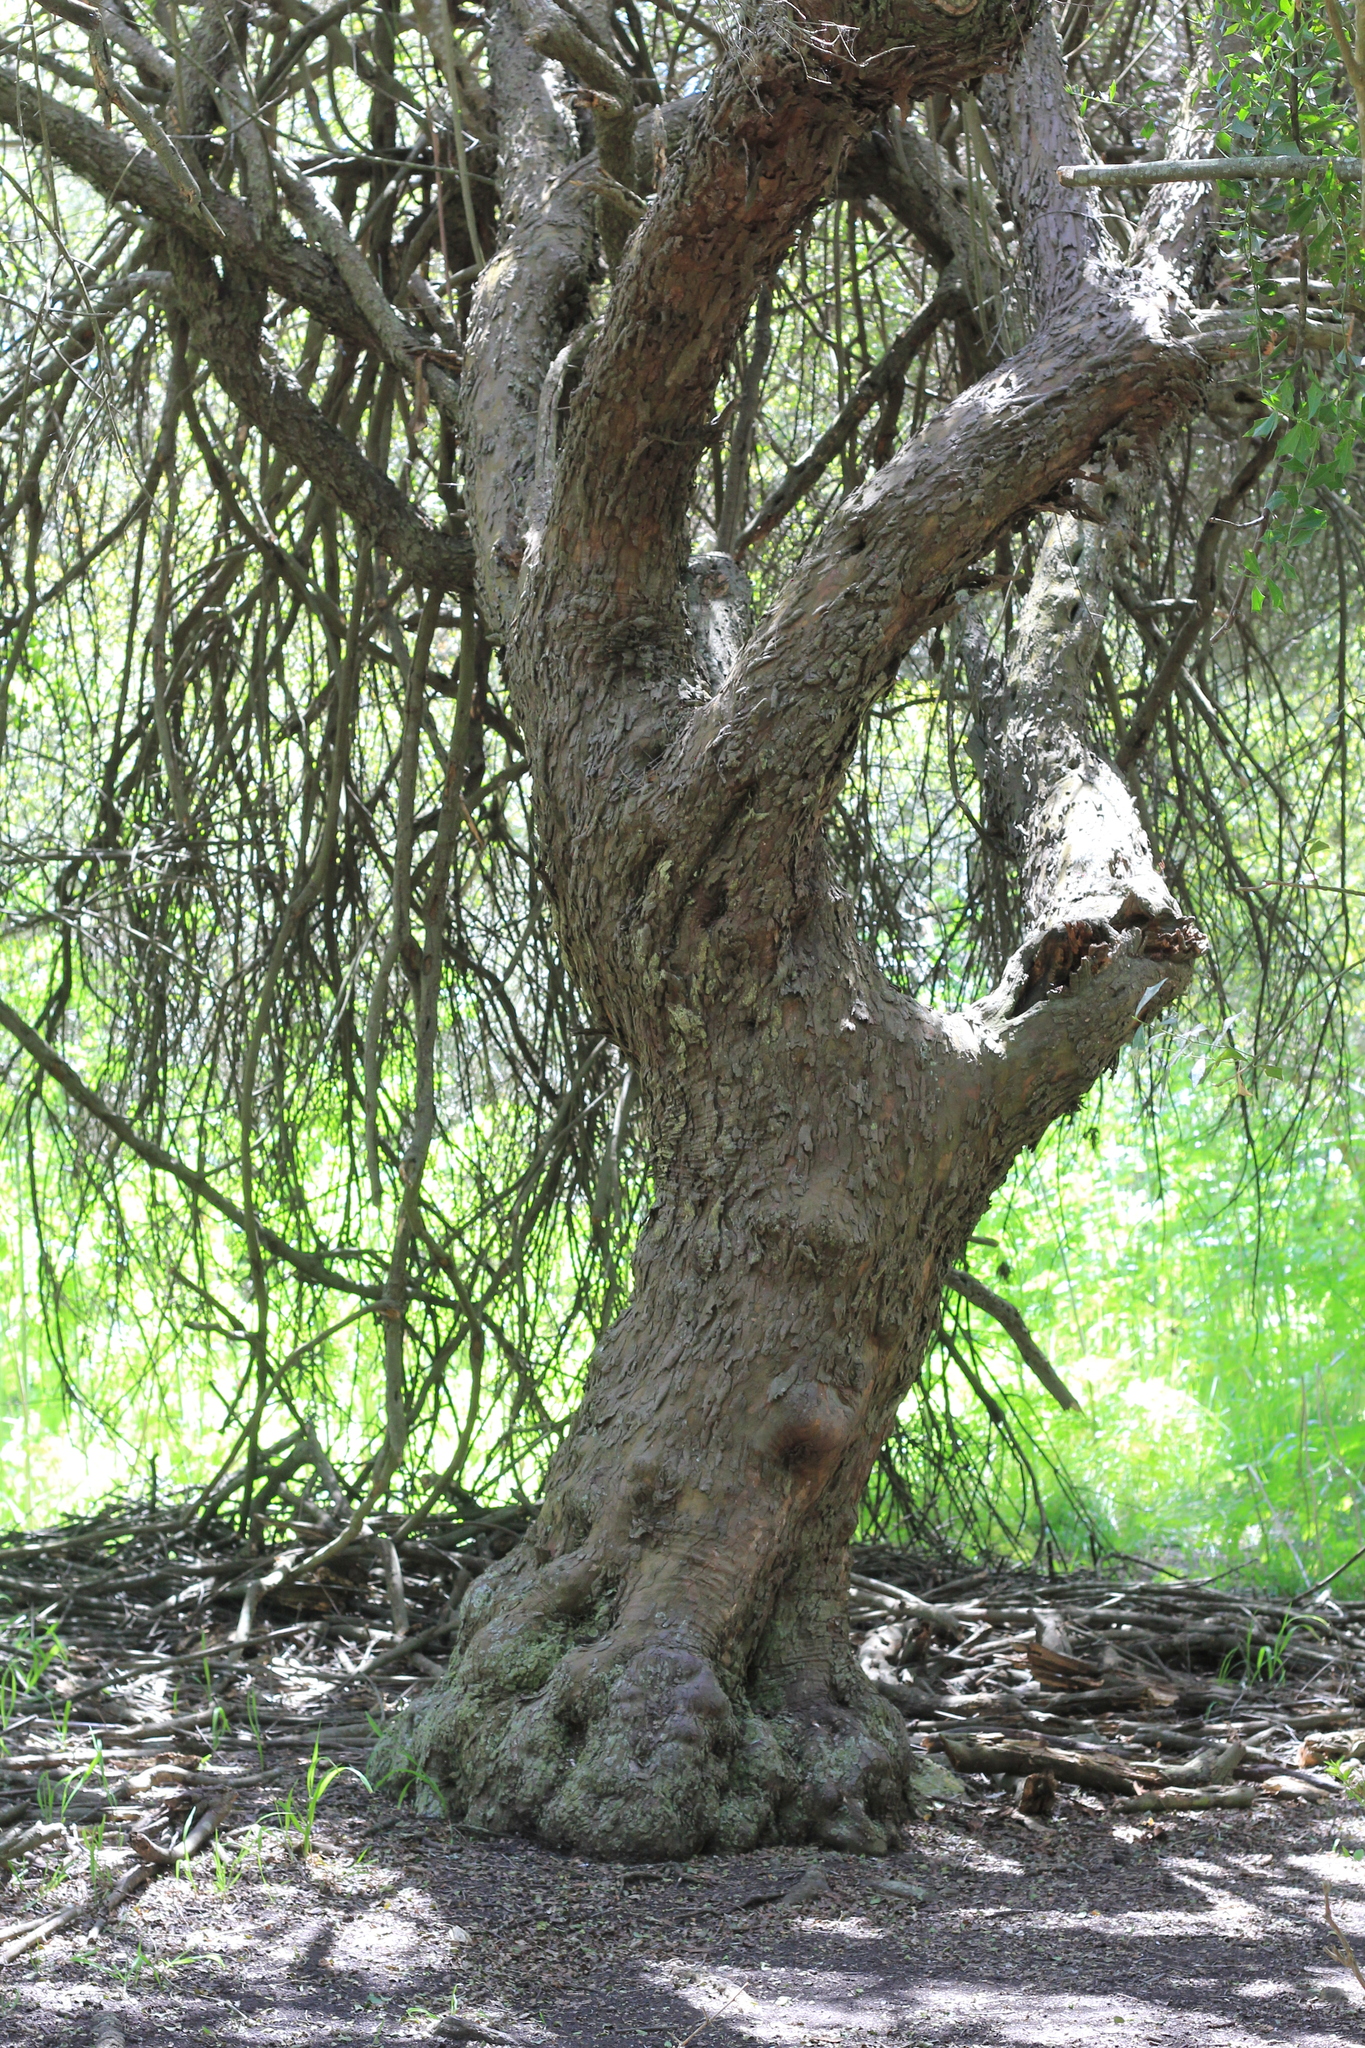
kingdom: Plantae
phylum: Tracheophyta
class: Magnoliopsida
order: Rosales
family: Rhamnaceae
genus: Scutia
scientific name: Scutia buxifolia
